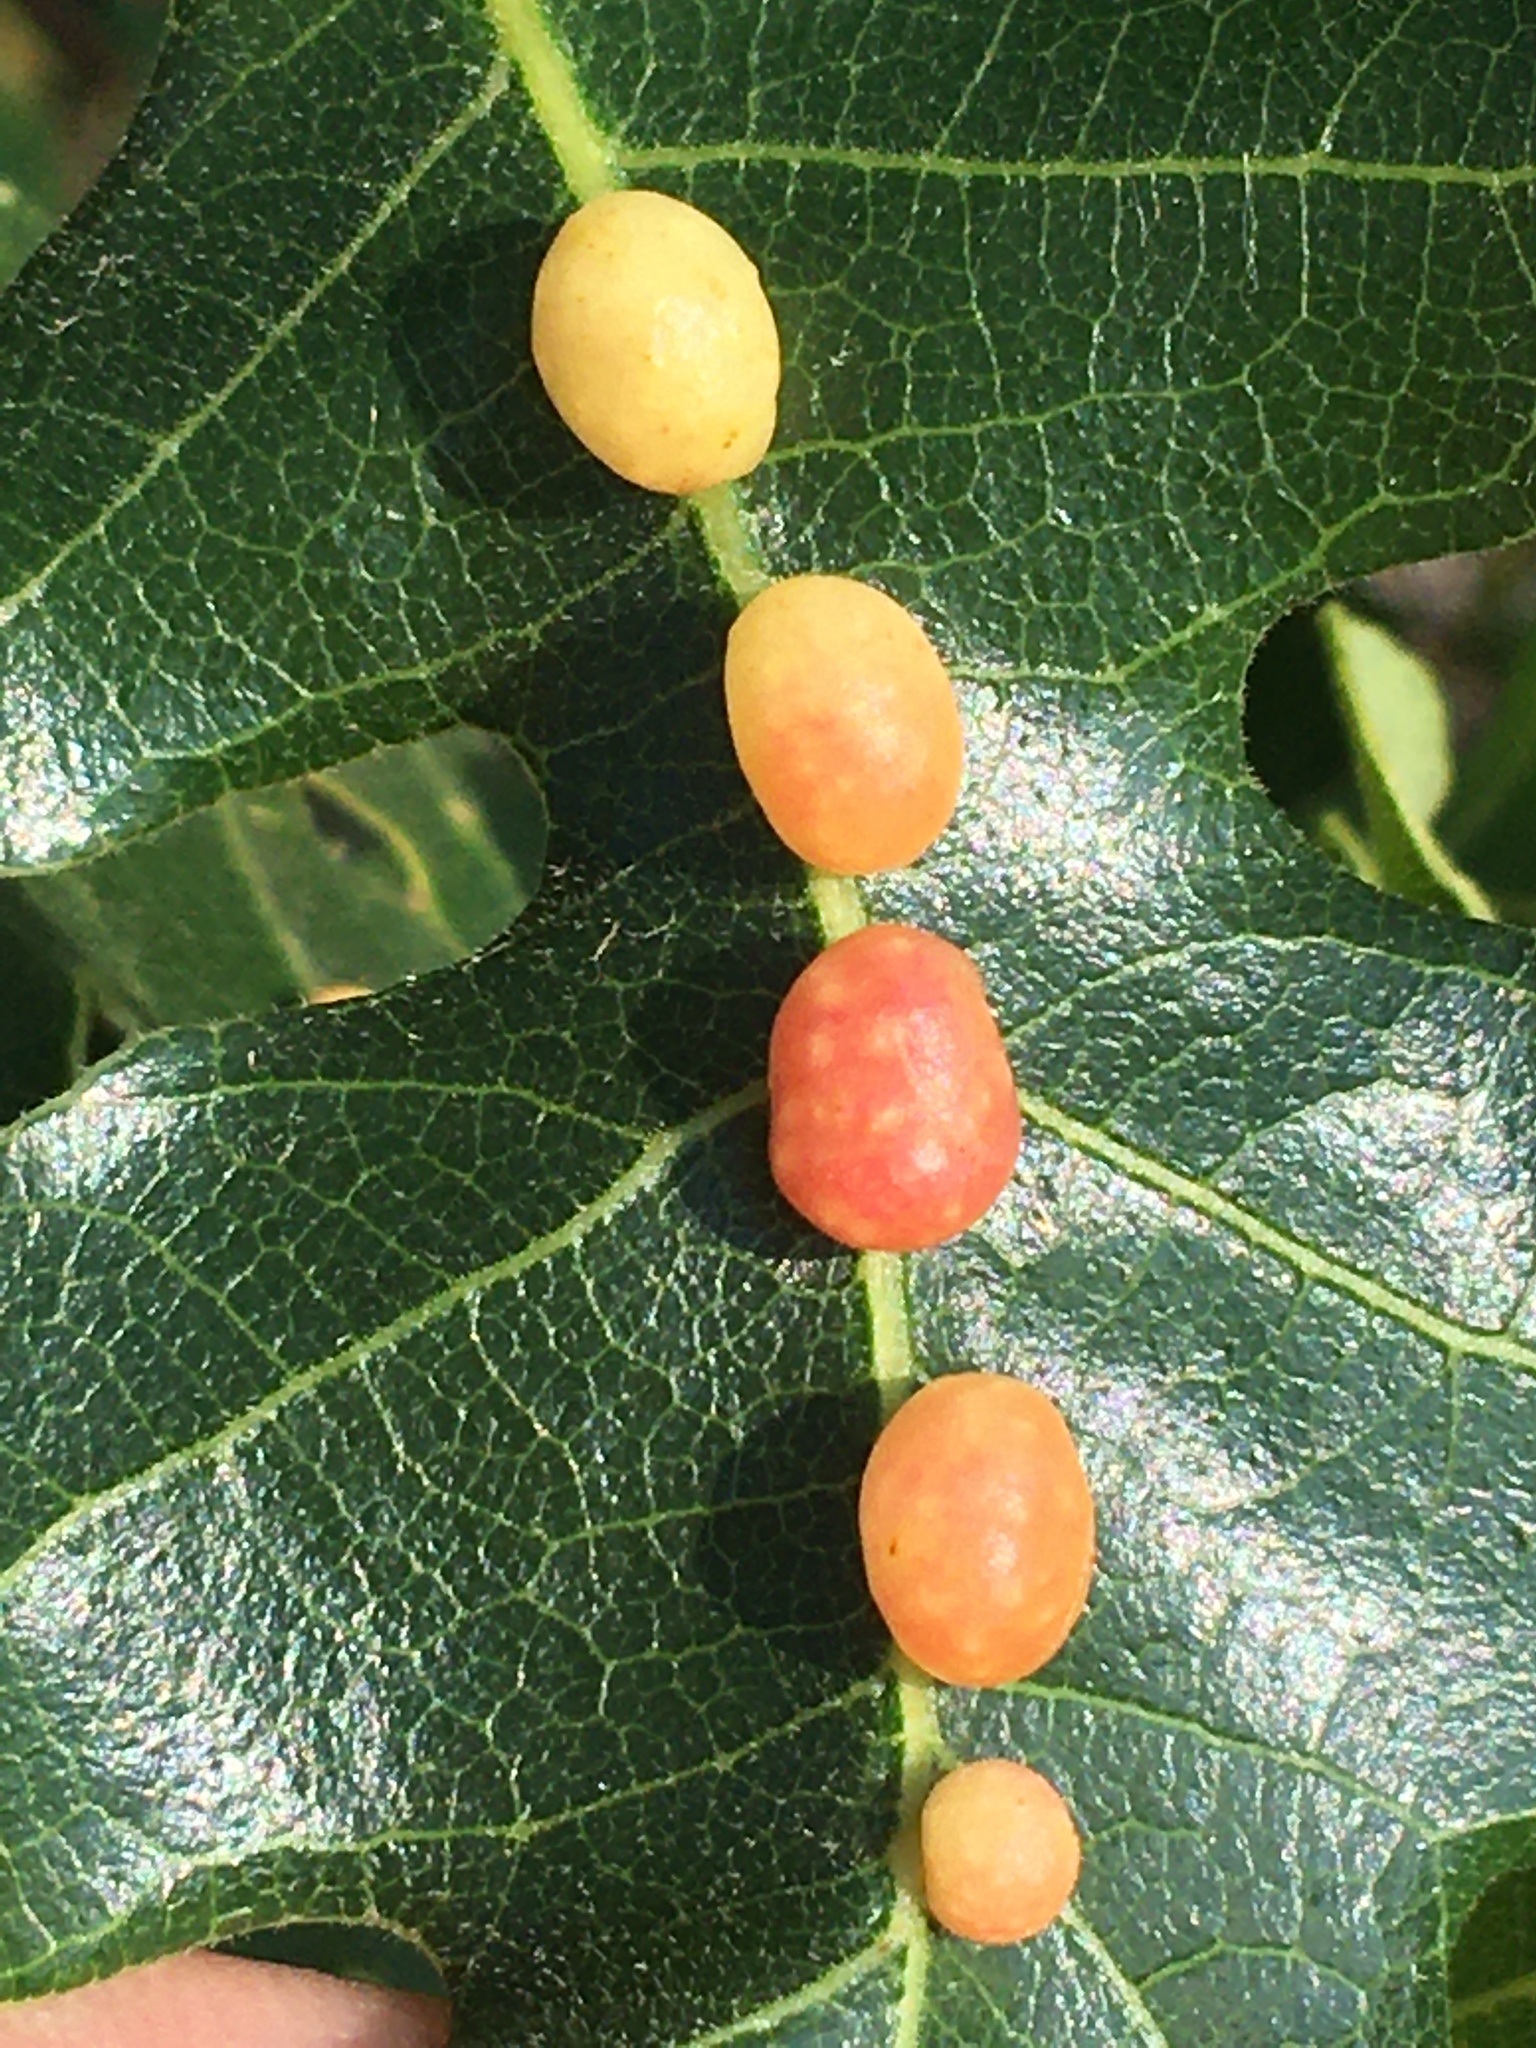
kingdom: Animalia
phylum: Arthropoda
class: Insecta
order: Hymenoptera
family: Cynipidae
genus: Trigonaspis
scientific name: Trigonaspis
